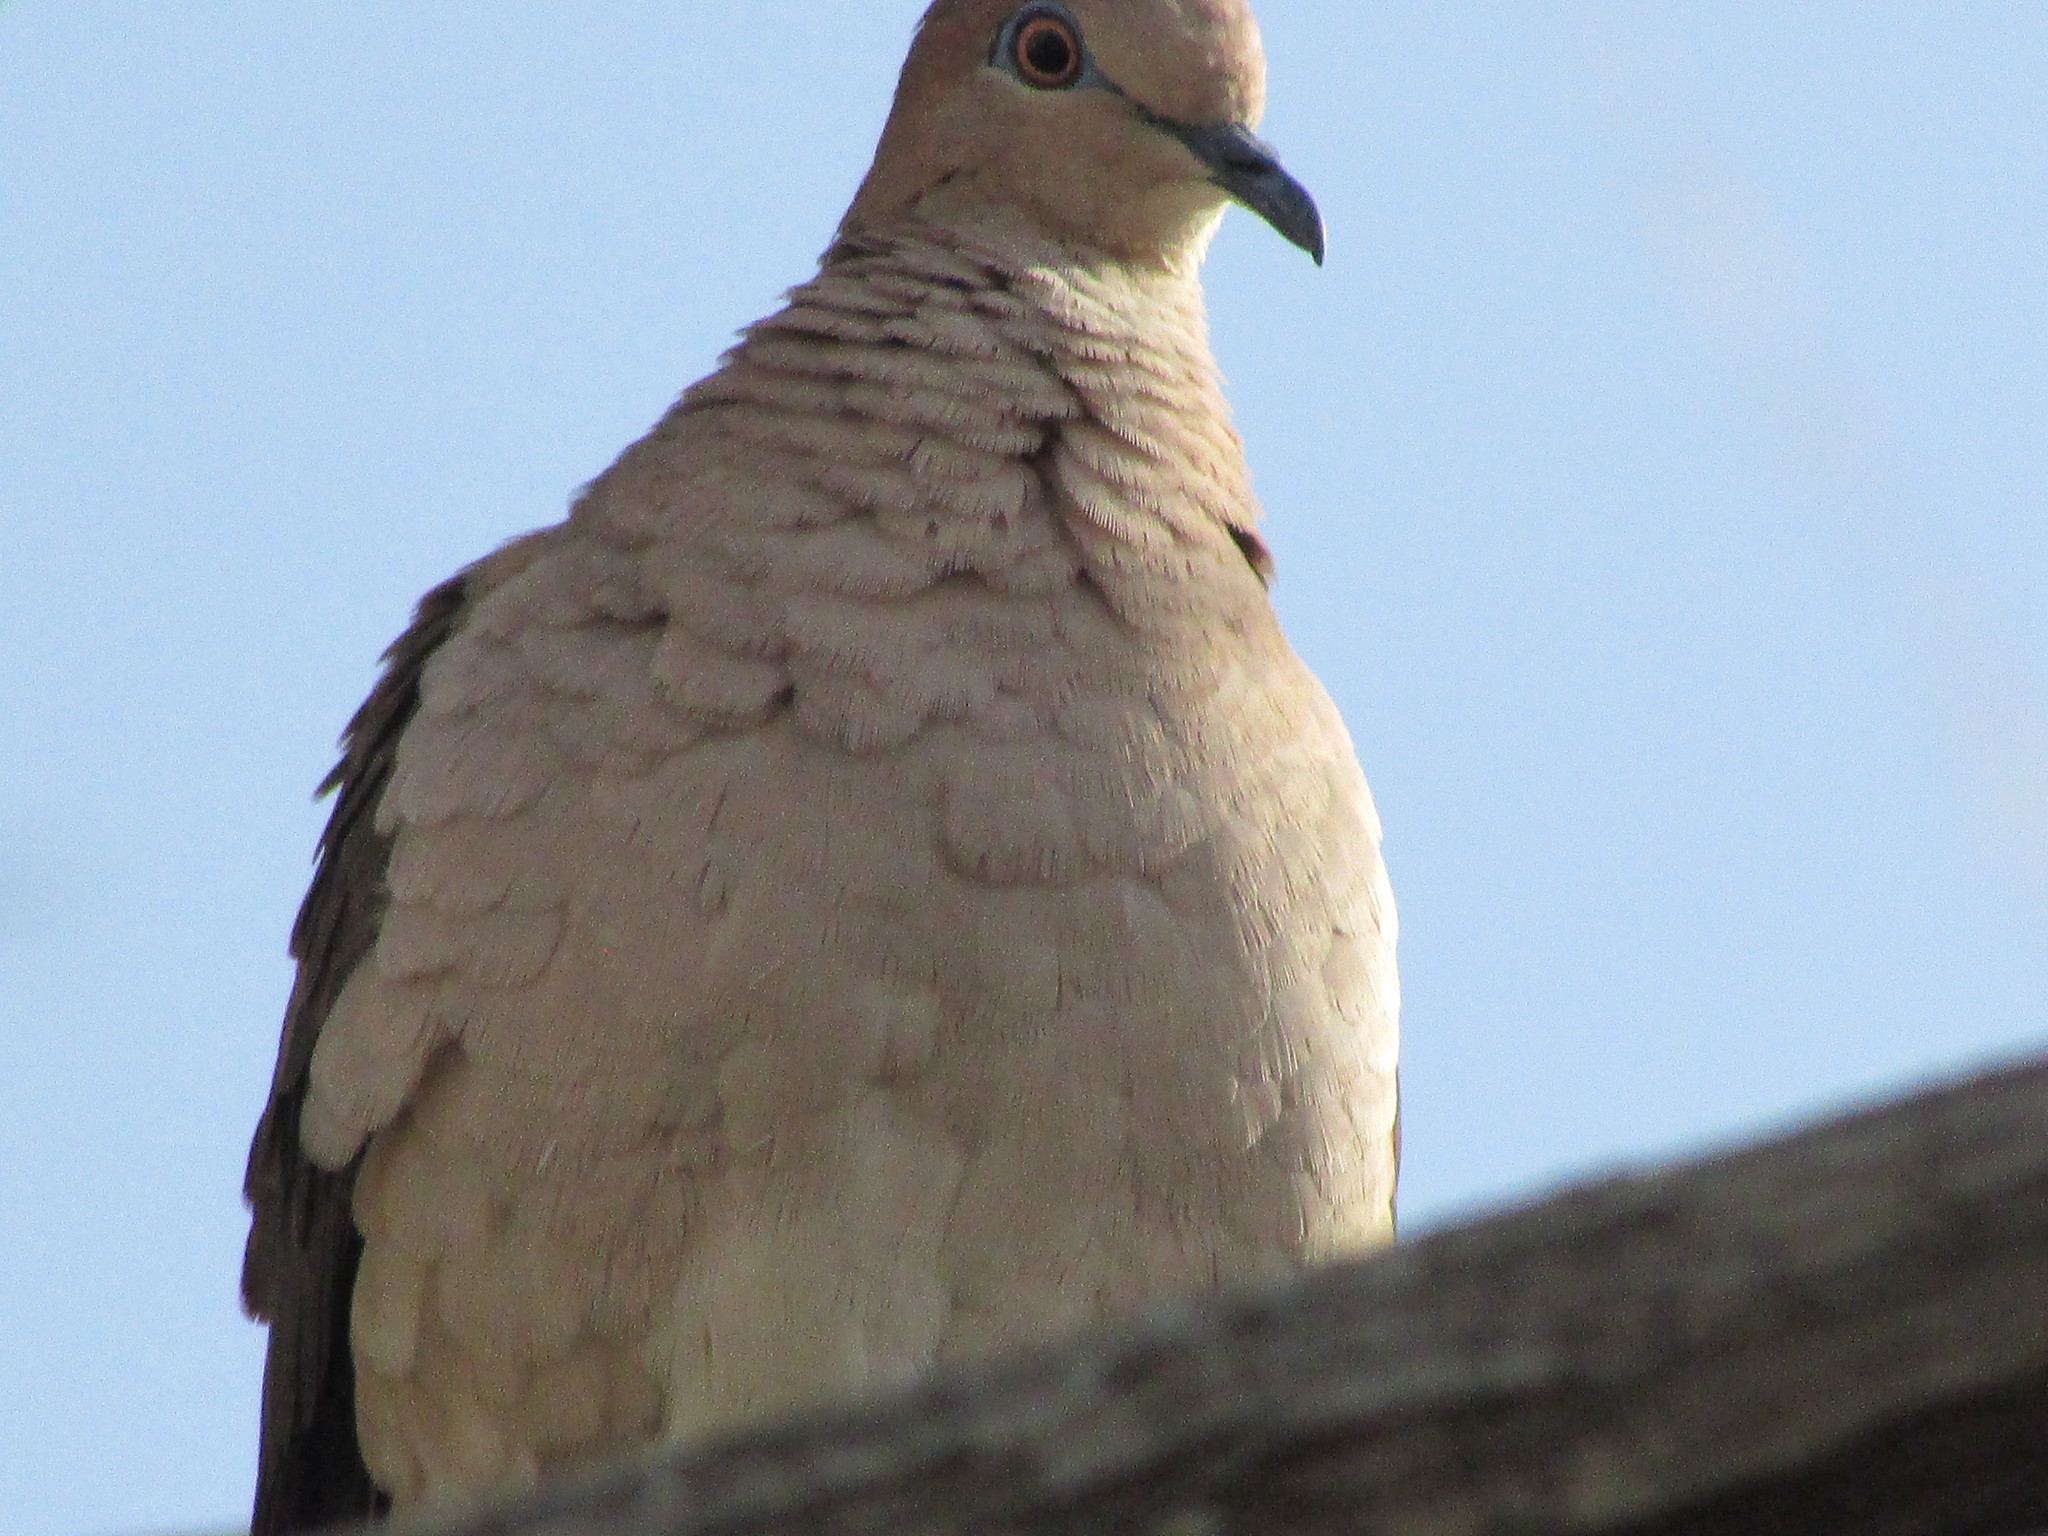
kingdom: Animalia
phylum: Chordata
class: Aves
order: Columbiformes
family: Columbidae
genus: Leptotila
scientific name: Leptotila verreauxi
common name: White-tipped dove
